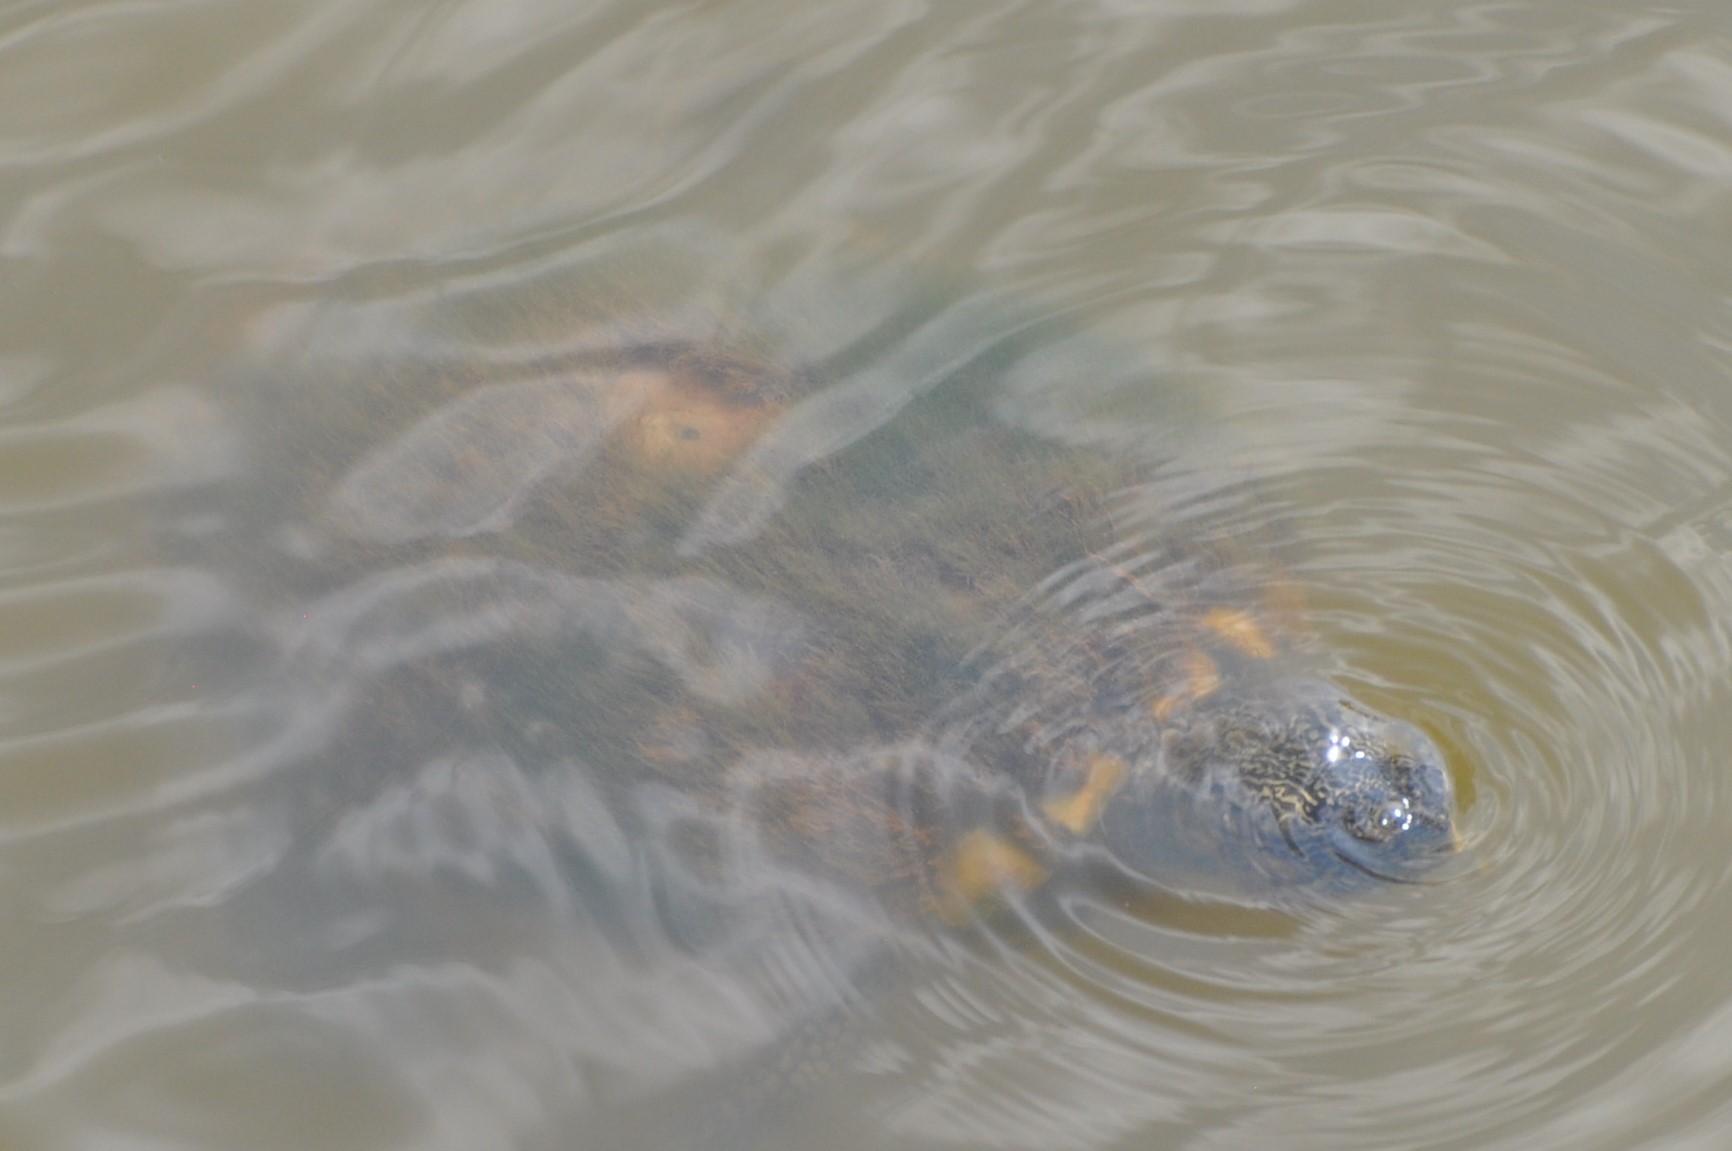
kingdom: Animalia
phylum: Chordata
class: Testudines
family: Emydidae
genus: Trachemys
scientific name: Trachemys scripta
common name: Slider
